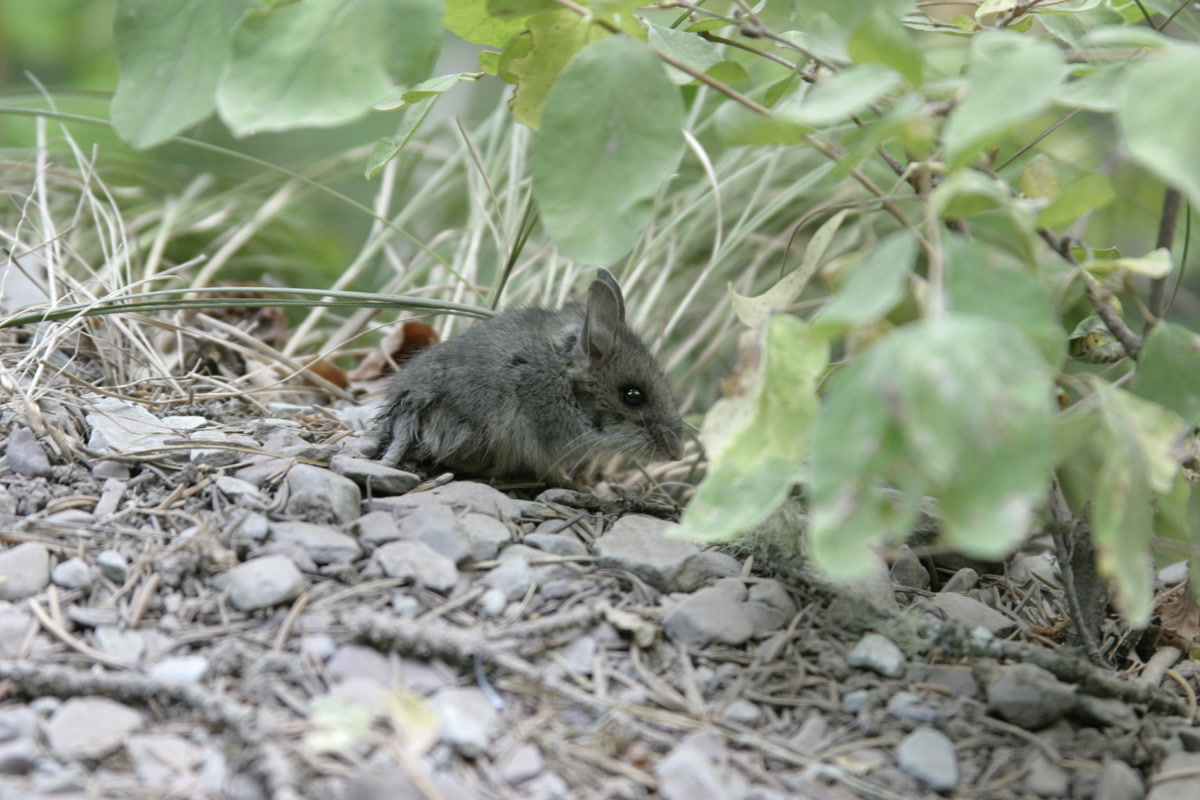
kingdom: Animalia
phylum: Chordata
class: Mammalia
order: Rodentia
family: Cricetidae
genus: Peromyscus
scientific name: Peromyscus maniculatus
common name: Deer mouse
